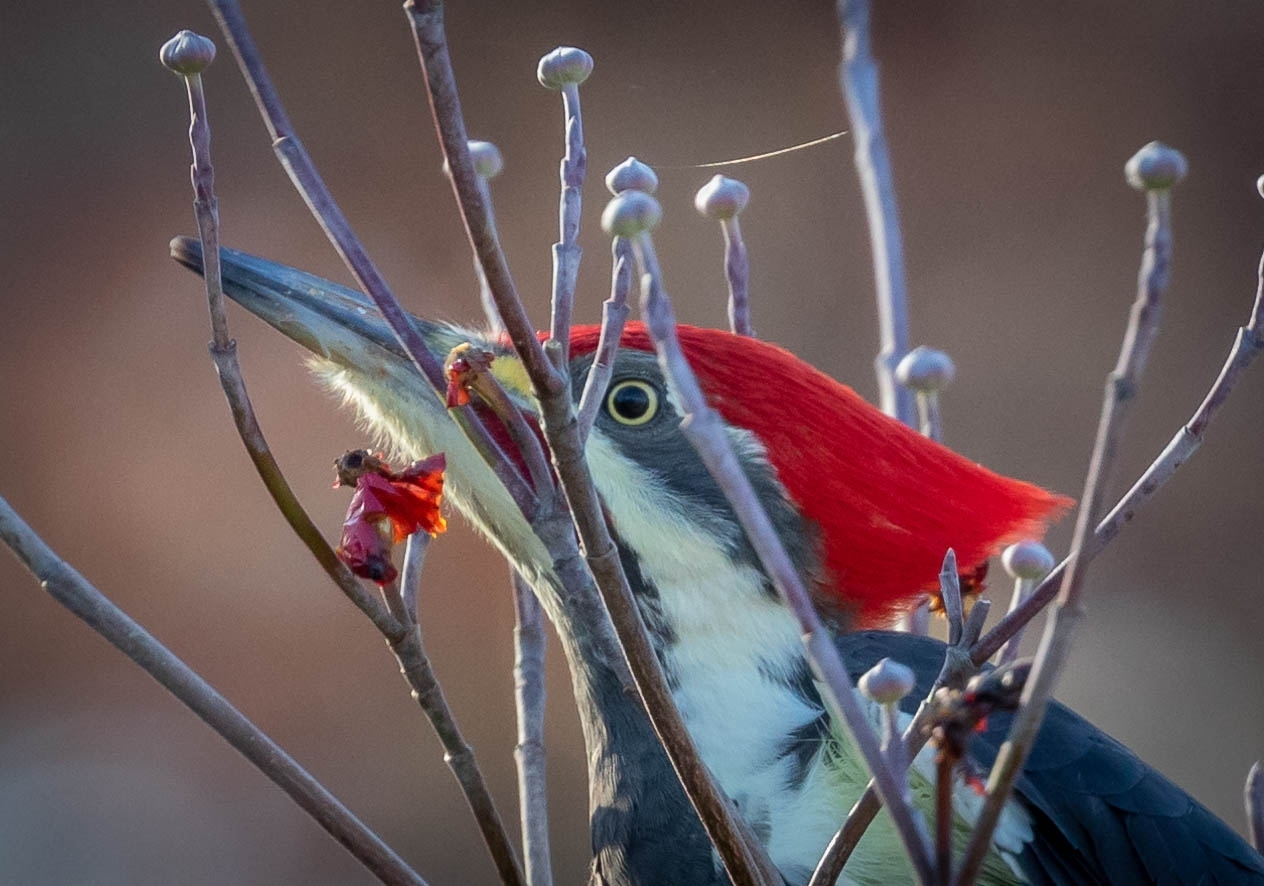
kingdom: Animalia
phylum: Chordata
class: Aves
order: Piciformes
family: Picidae
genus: Dryocopus
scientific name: Dryocopus pileatus
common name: Pileated woodpecker
